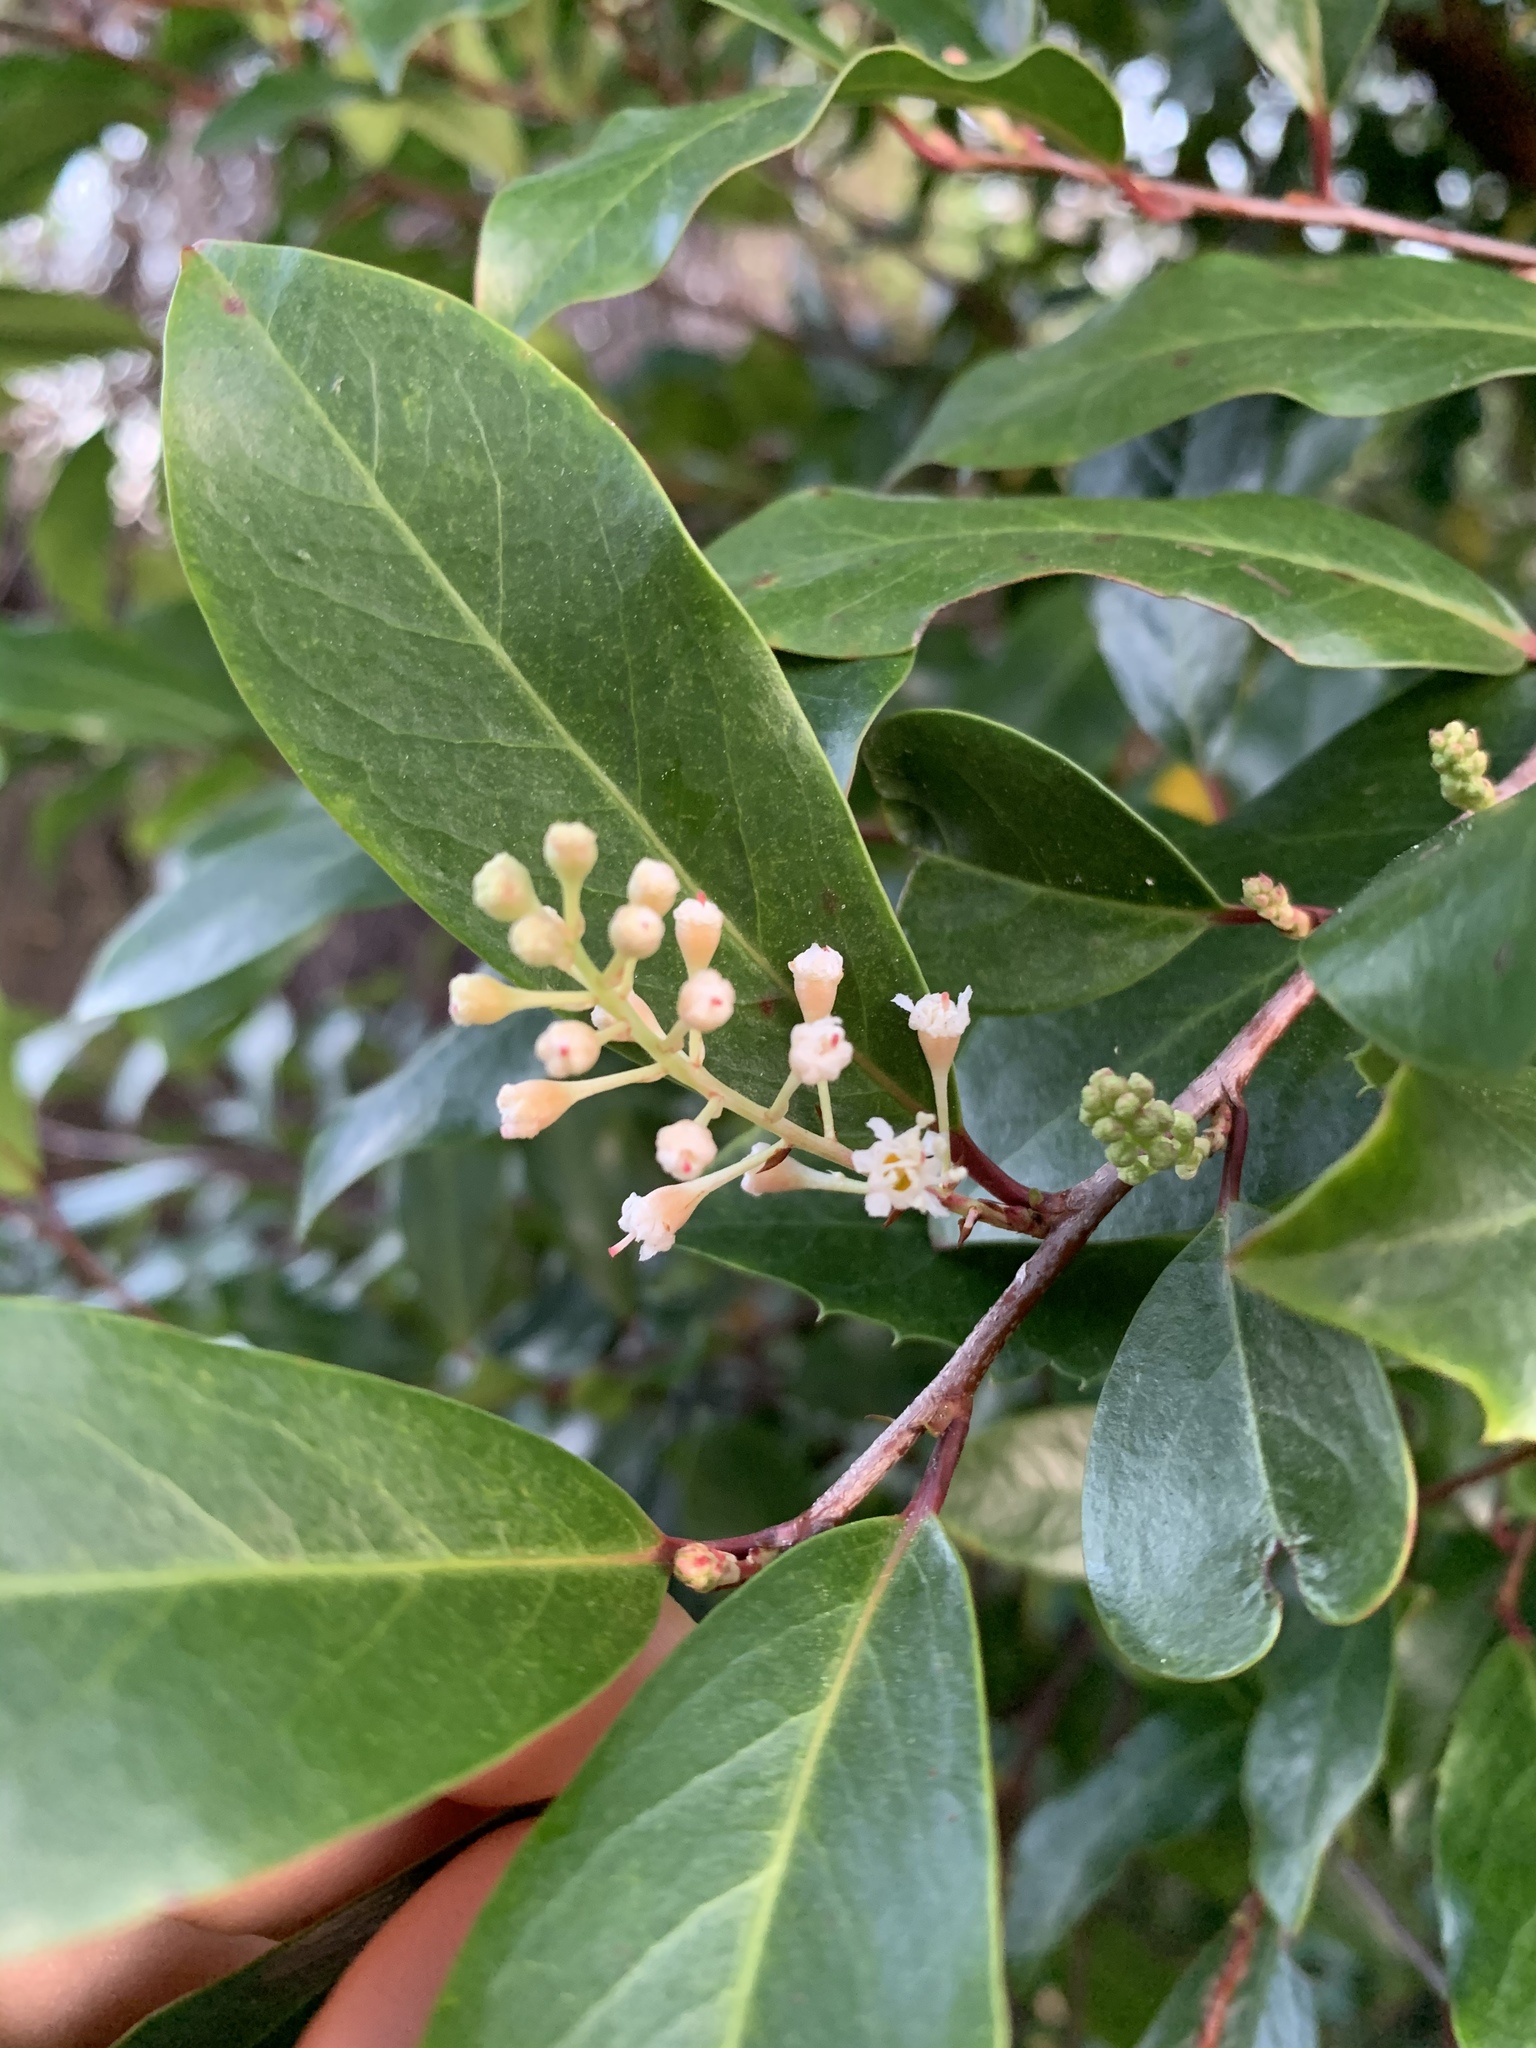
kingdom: Plantae
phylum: Tracheophyta
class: Magnoliopsida
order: Rosales
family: Rosaceae
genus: Prunus
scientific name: Prunus caroliniana
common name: Carolina laurel cherry
